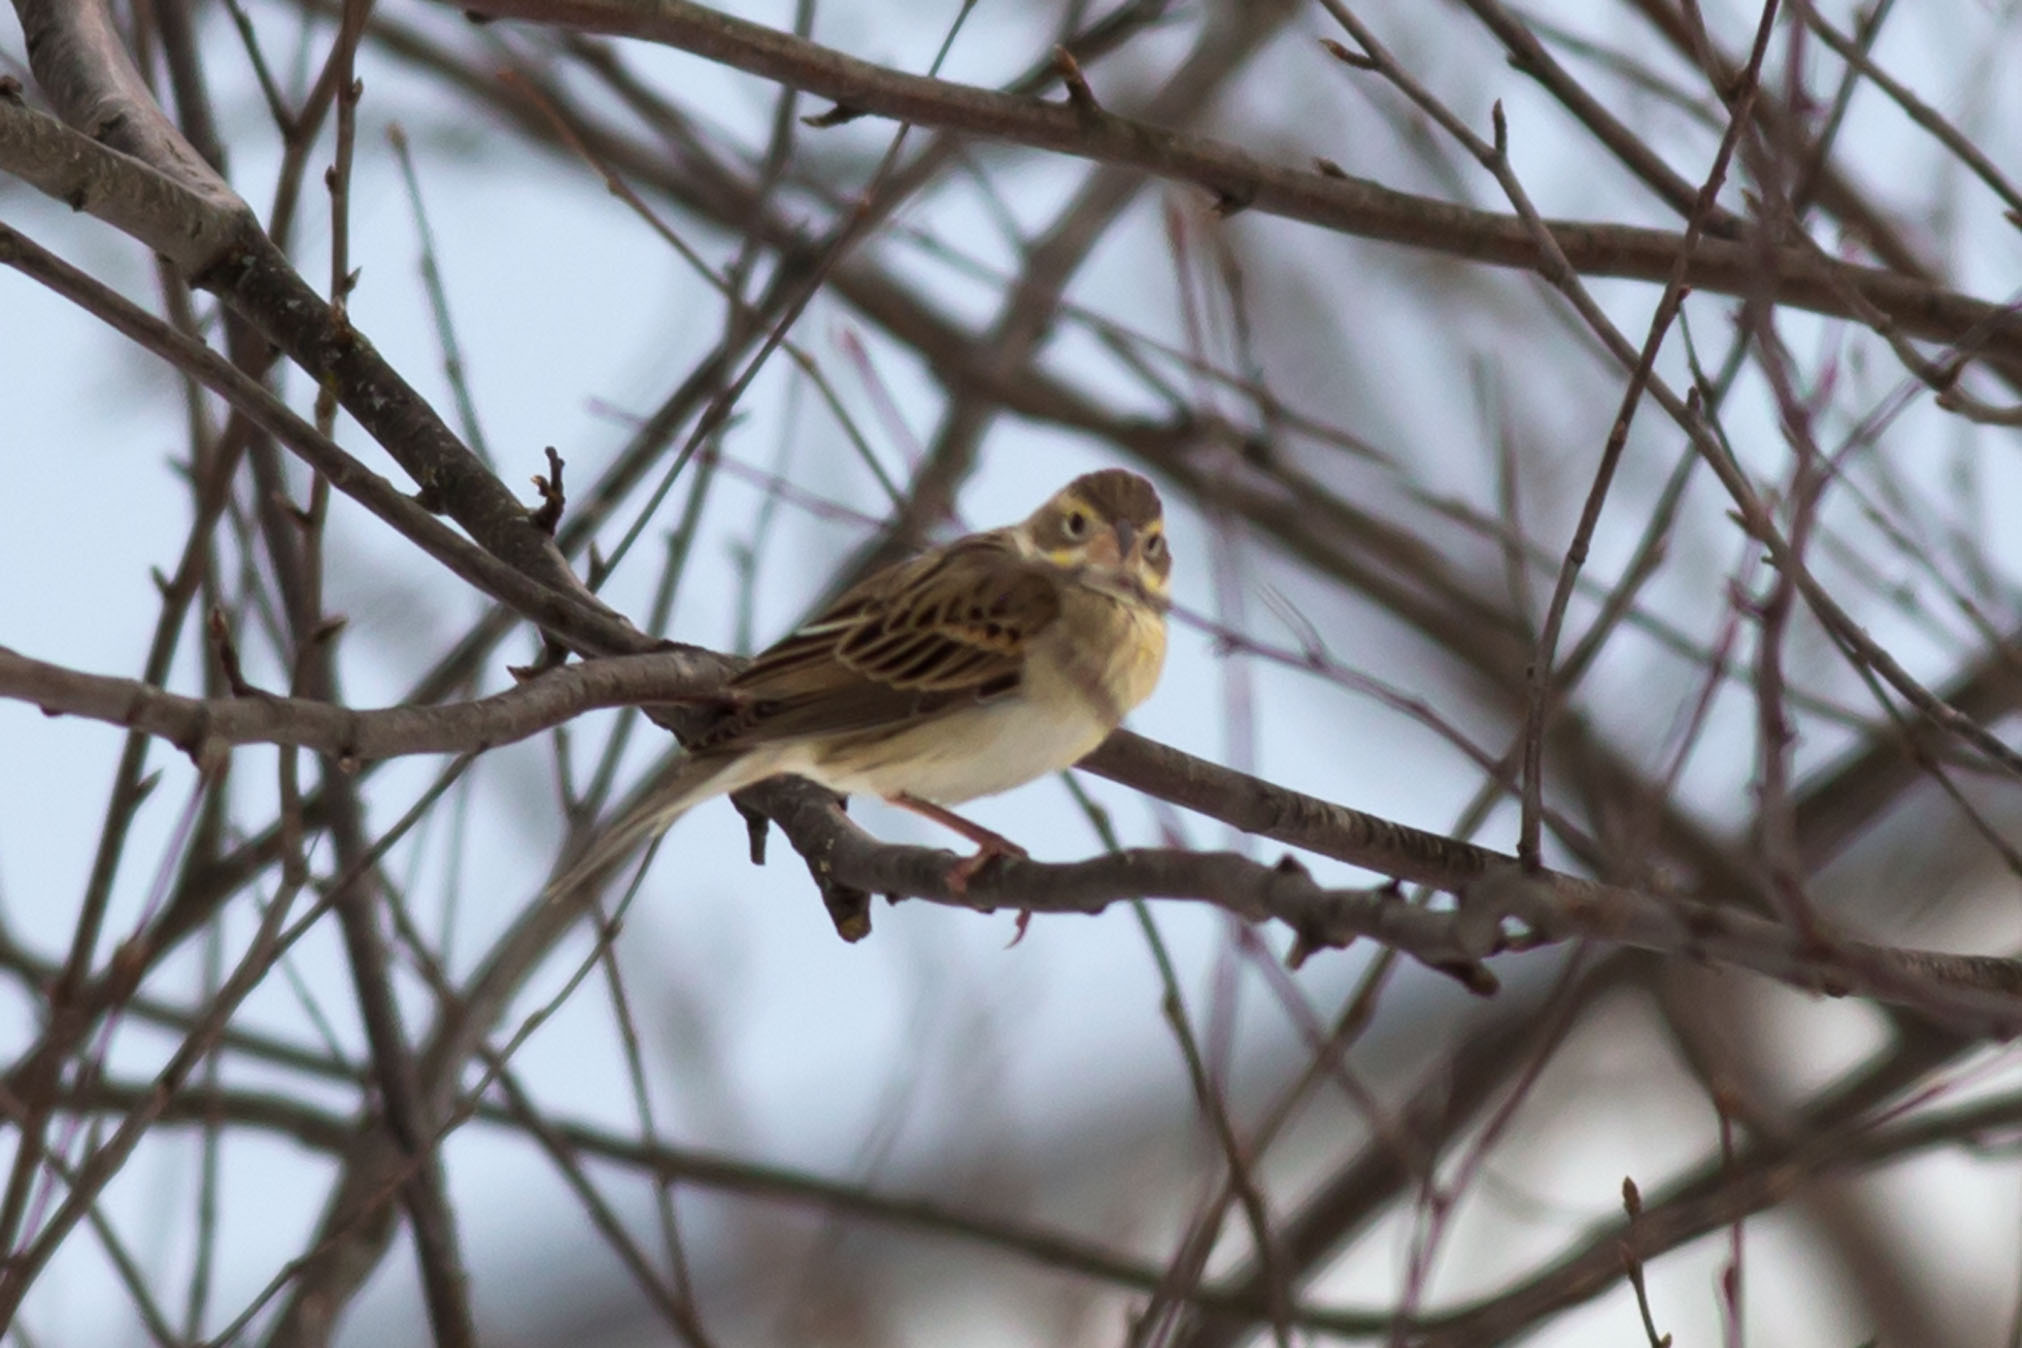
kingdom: Animalia
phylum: Chordata
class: Aves
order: Passeriformes
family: Cardinalidae
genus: Spiza
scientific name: Spiza americana
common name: Dickcissel
